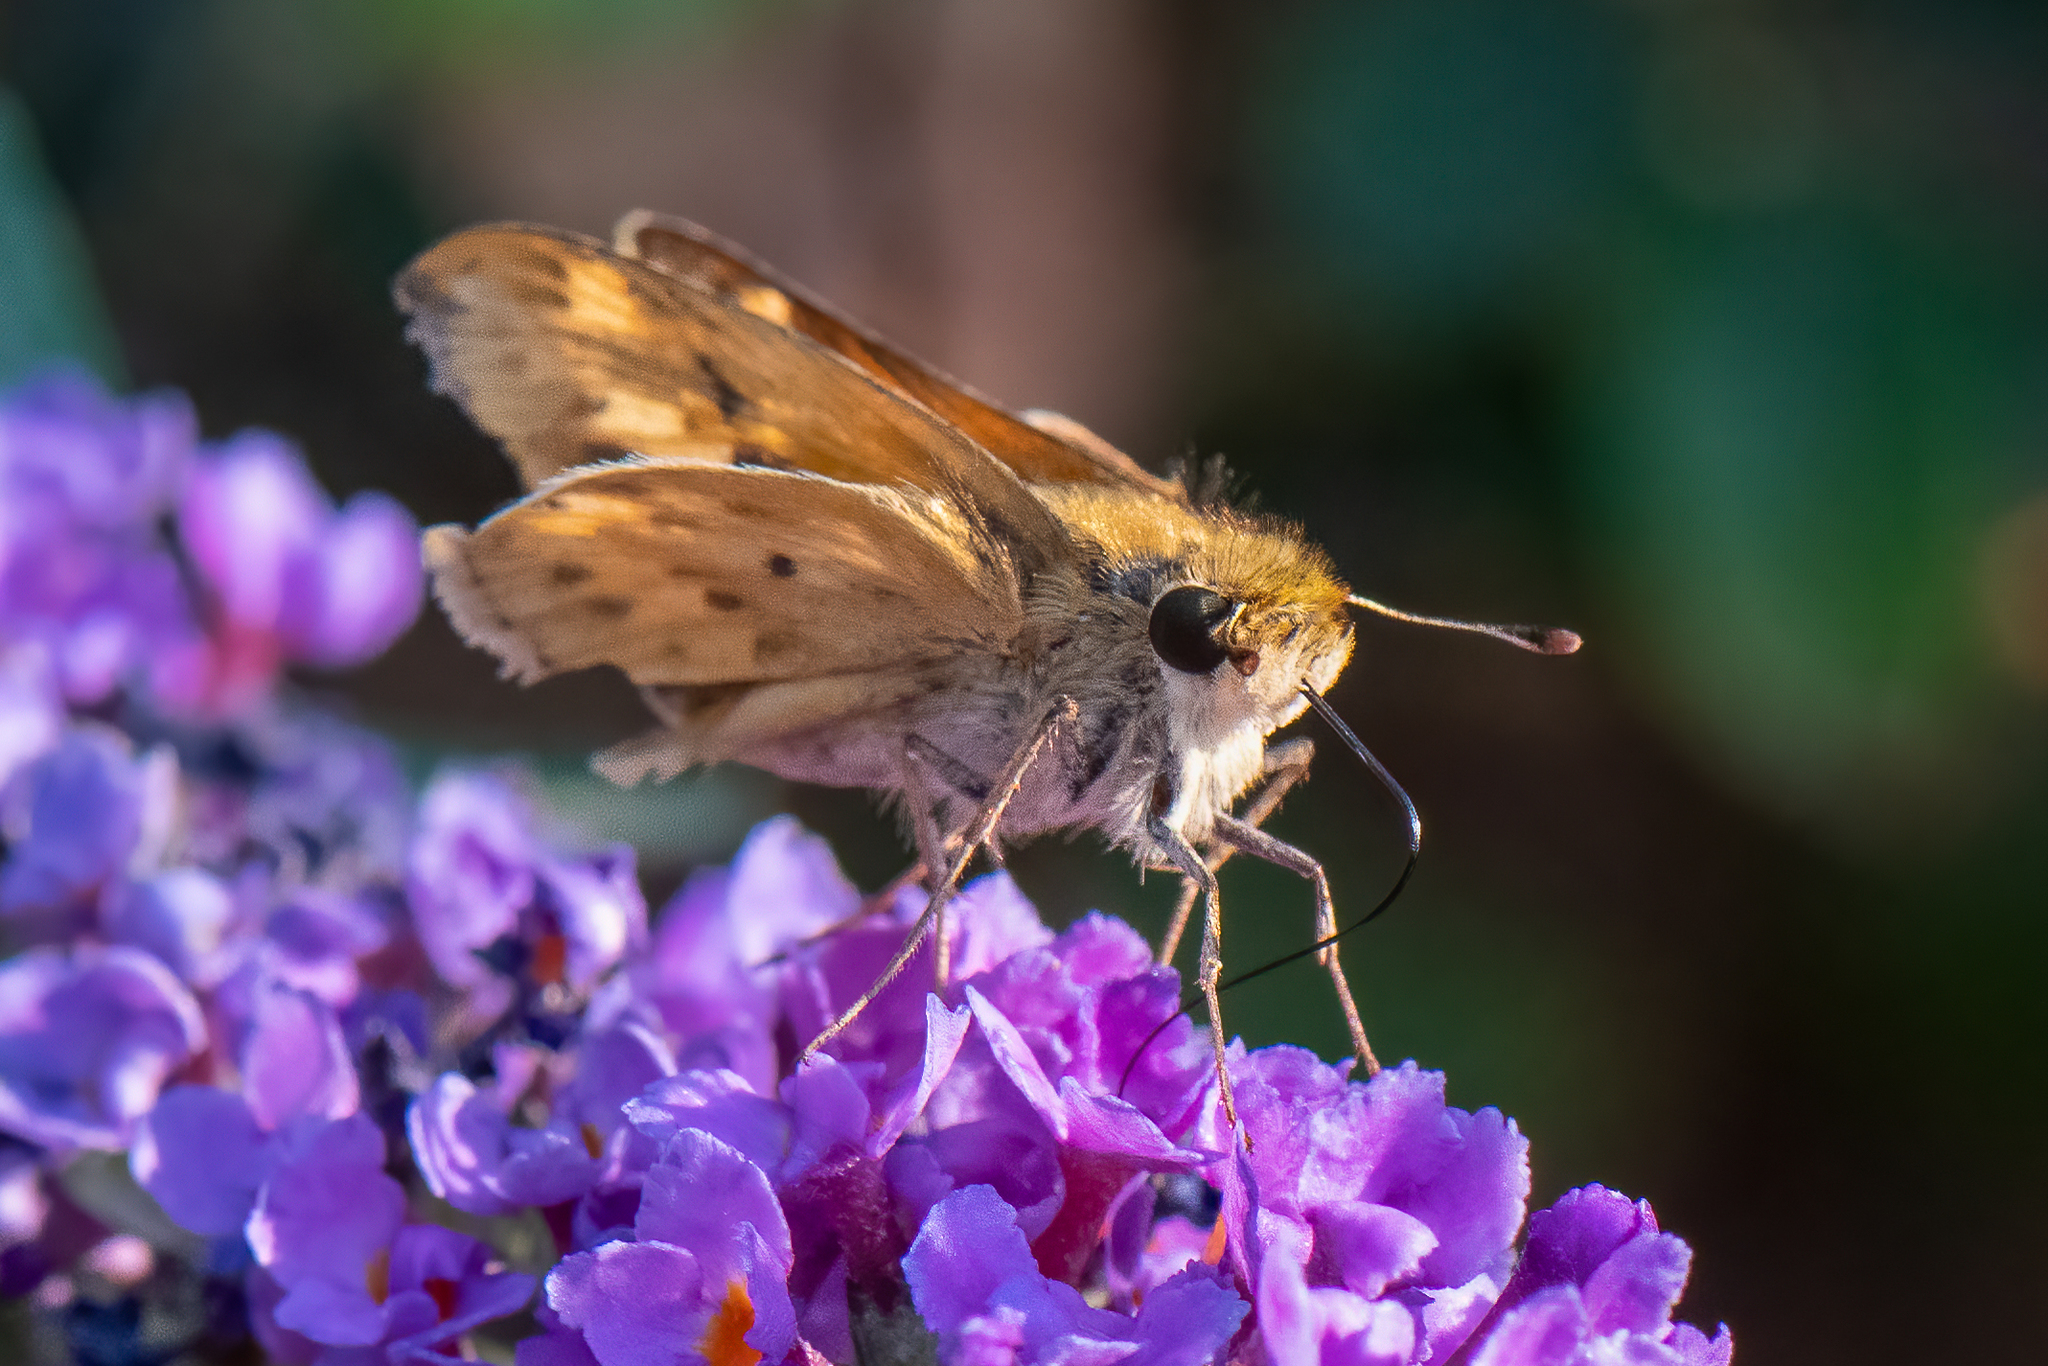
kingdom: Animalia
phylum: Arthropoda
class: Insecta
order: Lepidoptera
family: Hesperiidae
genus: Hylephila
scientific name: Hylephila phyleus
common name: Fiery skipper
